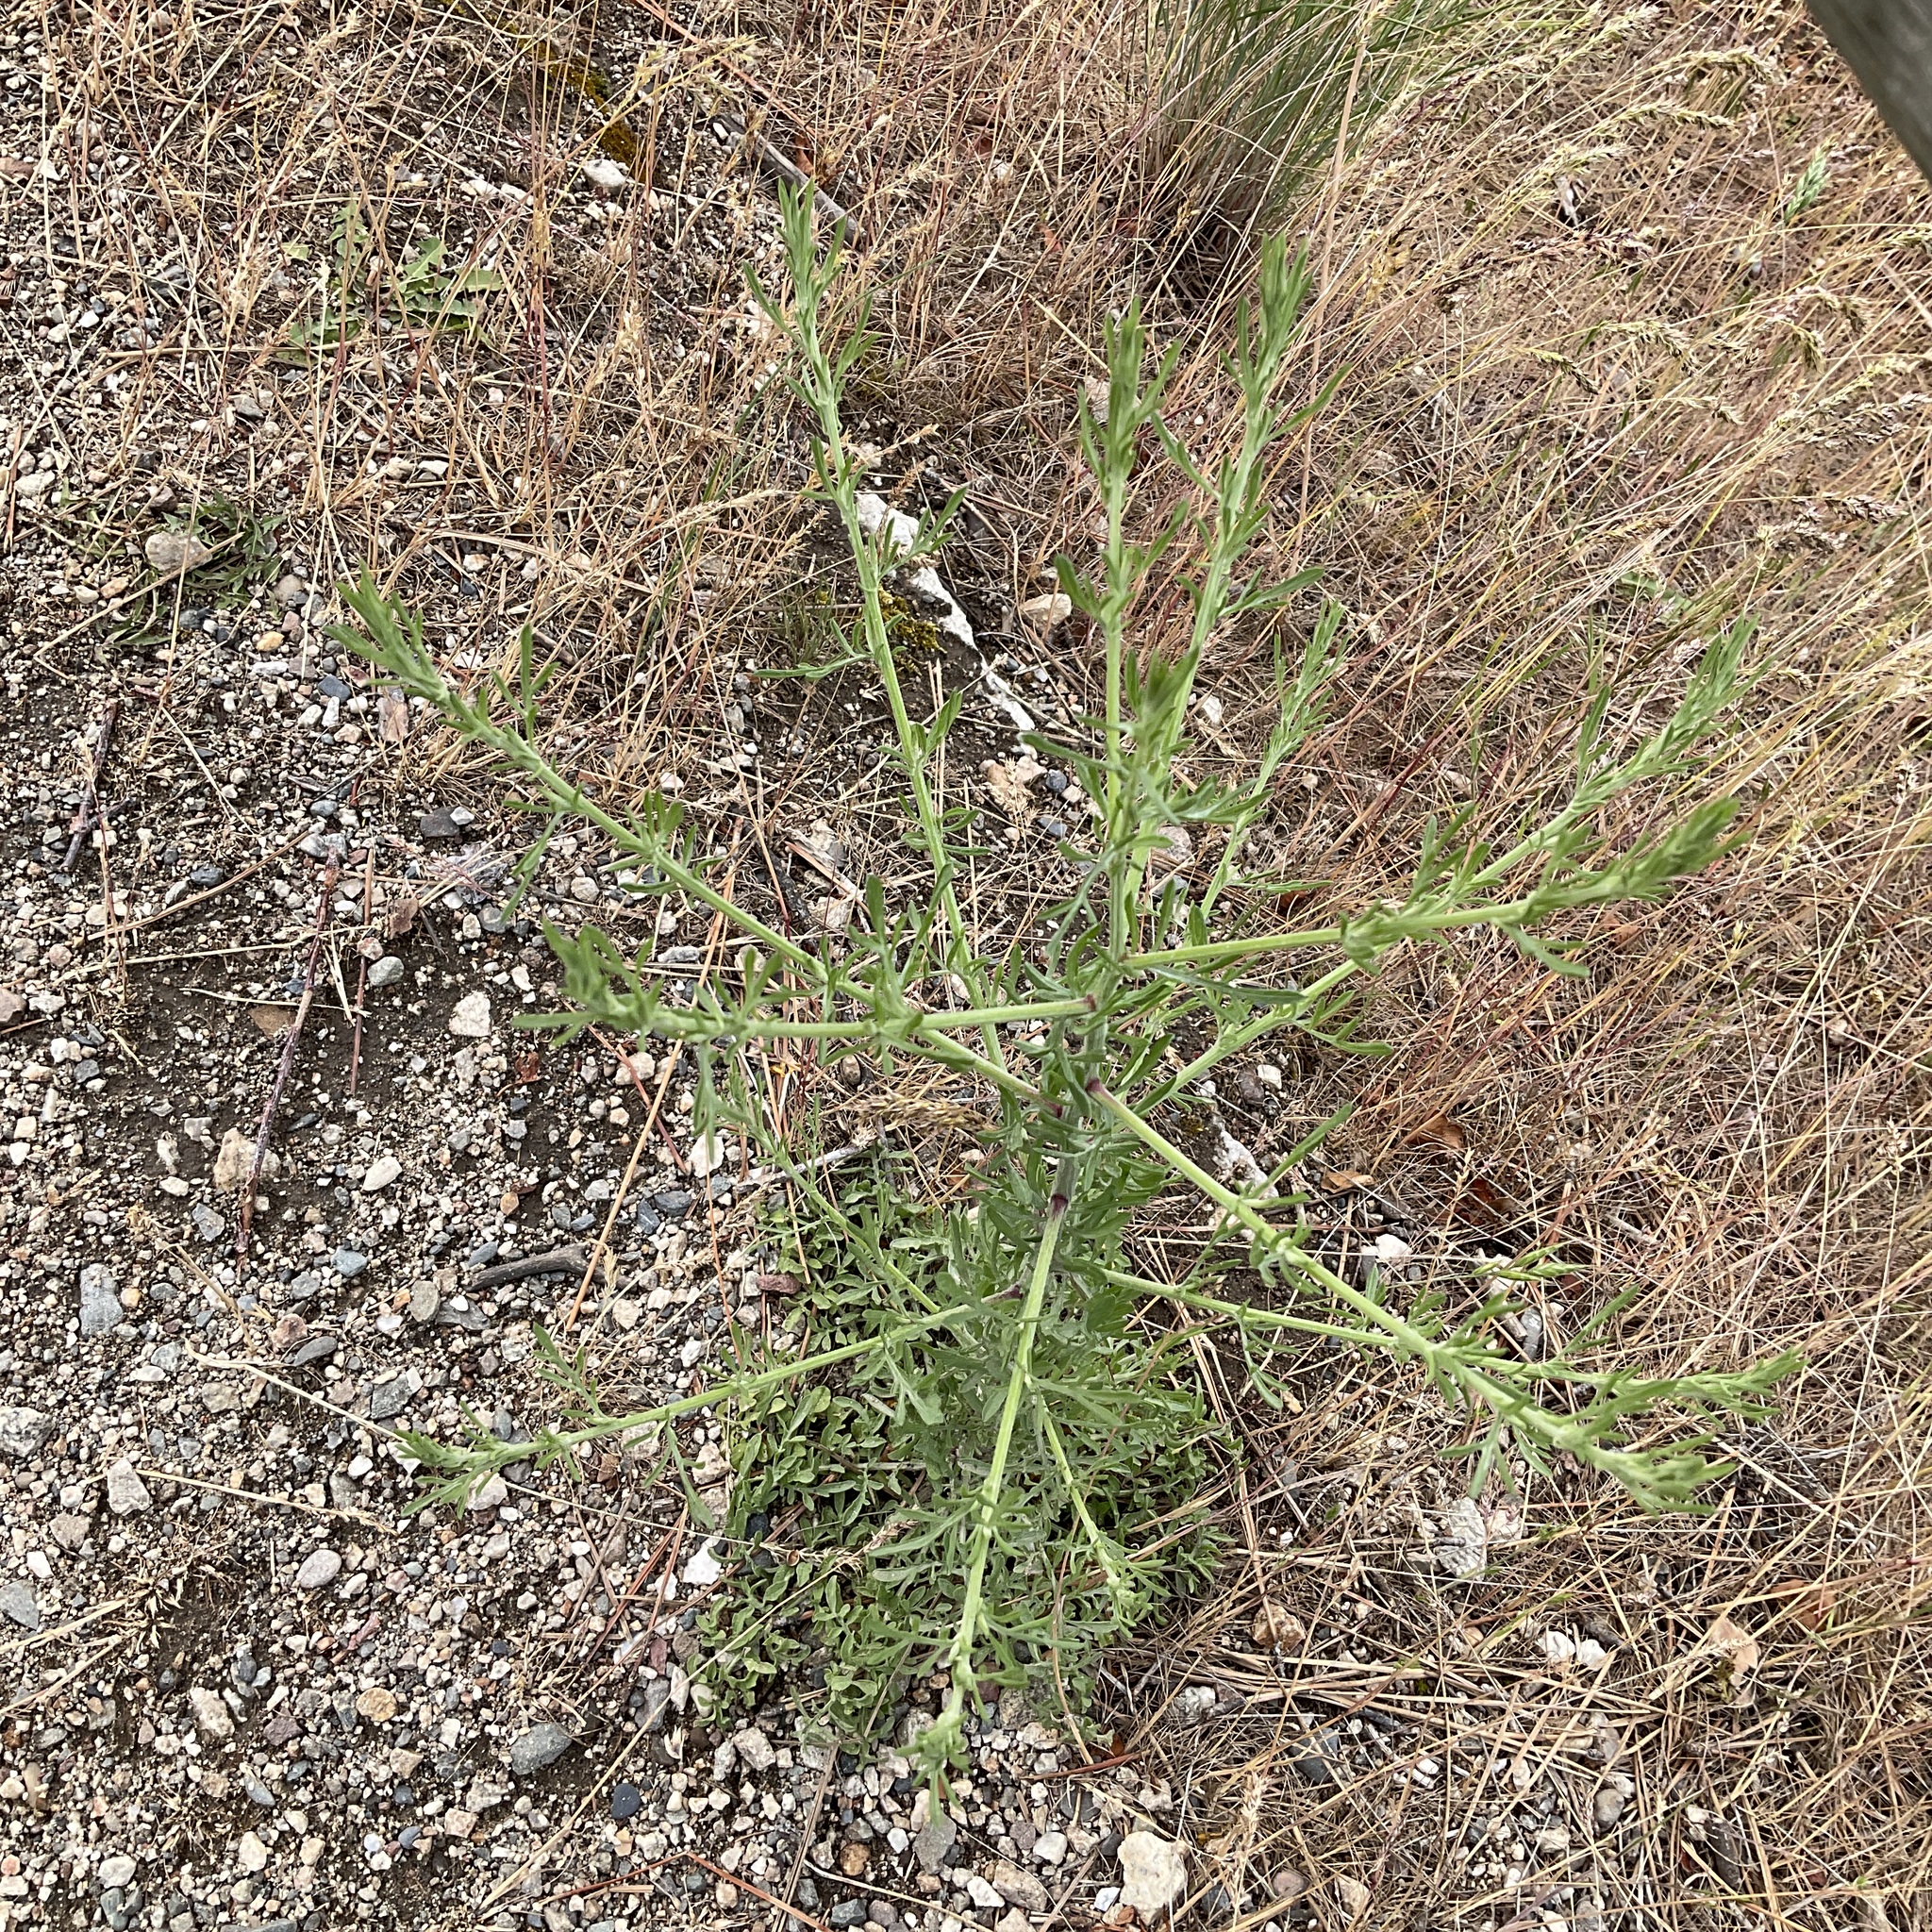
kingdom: Plantae
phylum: Tracheophyta
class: Magnoliopsida
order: Asterales
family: Asteraceae
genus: Centaurea
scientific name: Centaurea diffusa
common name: Diffuse knapweed
